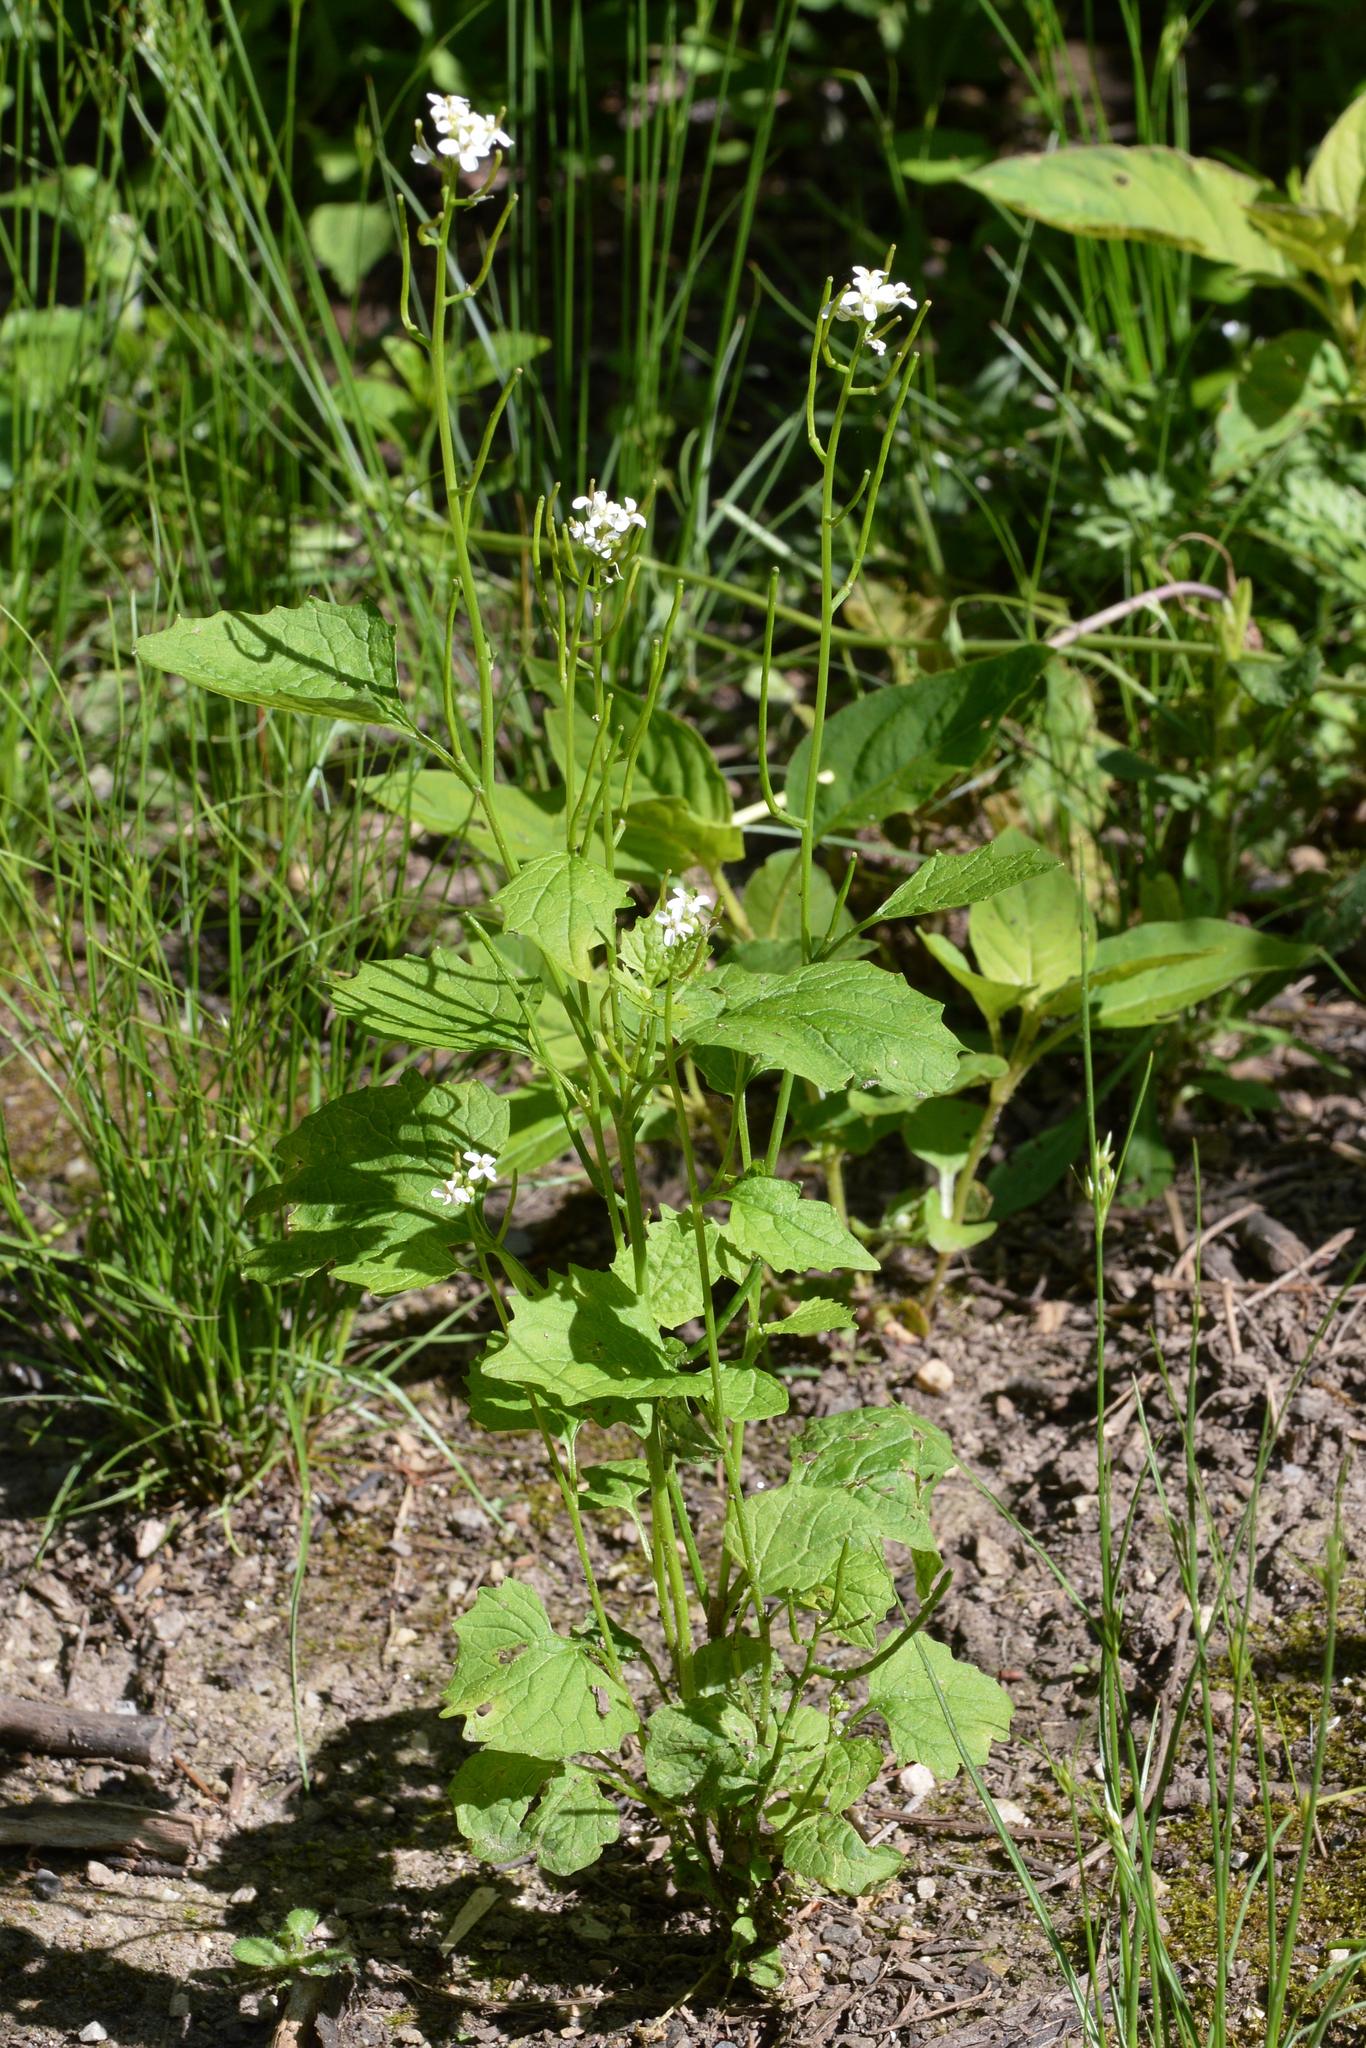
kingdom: Plantae
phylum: Tracheophyta
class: Magnoliopsida
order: Brassicales
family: Brassicaceae
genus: Alliaria
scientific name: Alliaria petiolata
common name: Garlic mustard
